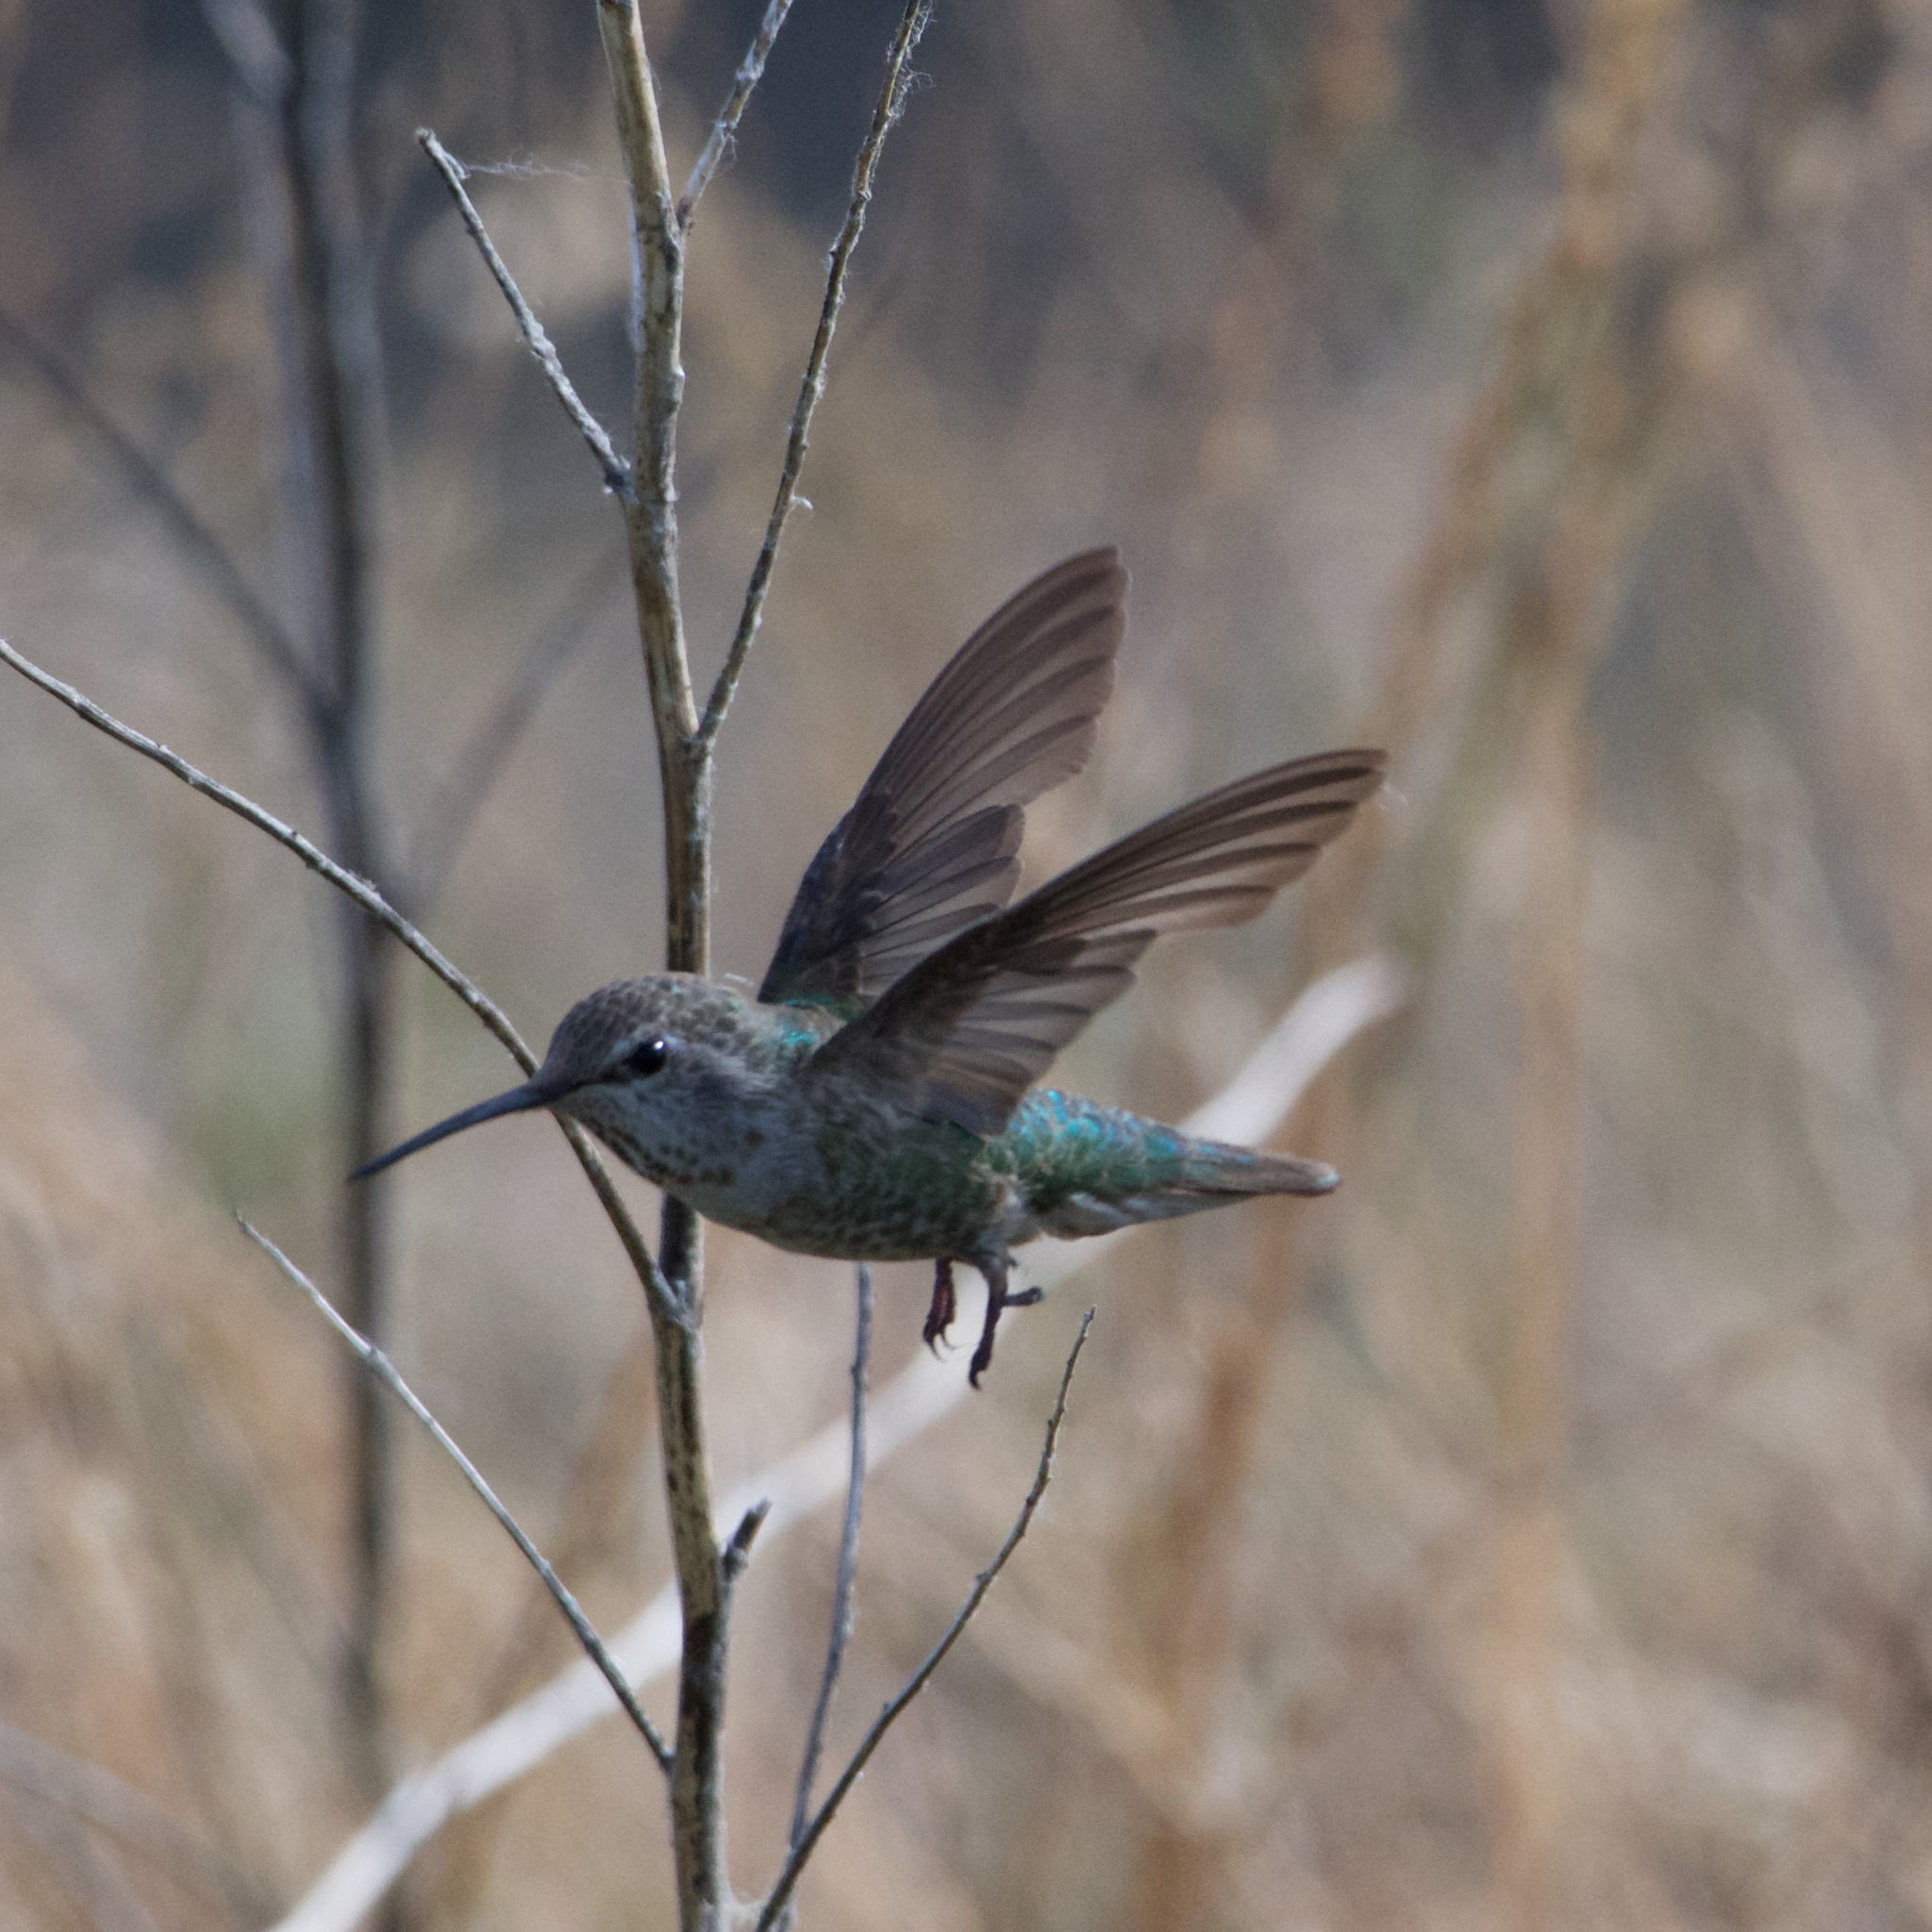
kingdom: Animalia
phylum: Chordata
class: Aves
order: Apodiformes
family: Trochilidae
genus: Calypte
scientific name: Calypte anna
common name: Anna's hummingbird
